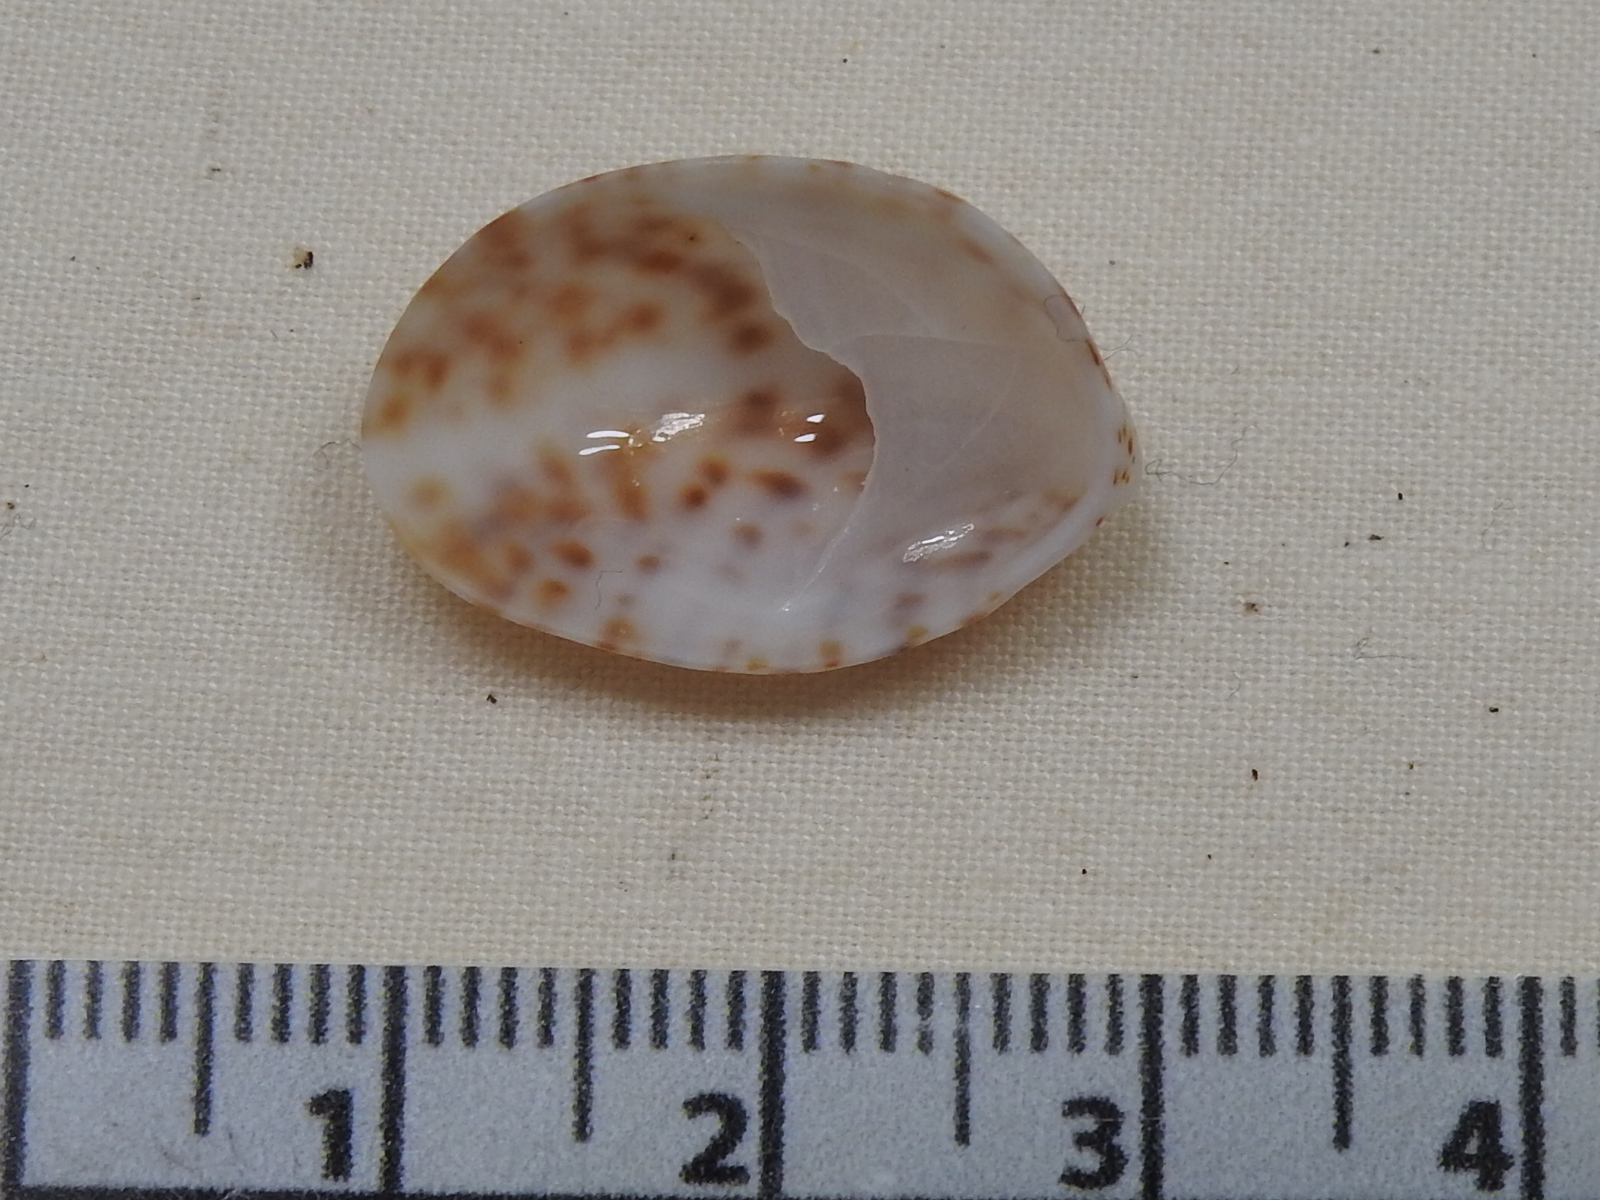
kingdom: Animalia
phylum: Mollusca
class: Gastropoda
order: Littorinimorpha
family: Calyptraeidae
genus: Crepidula
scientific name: Crepidula maculosa
